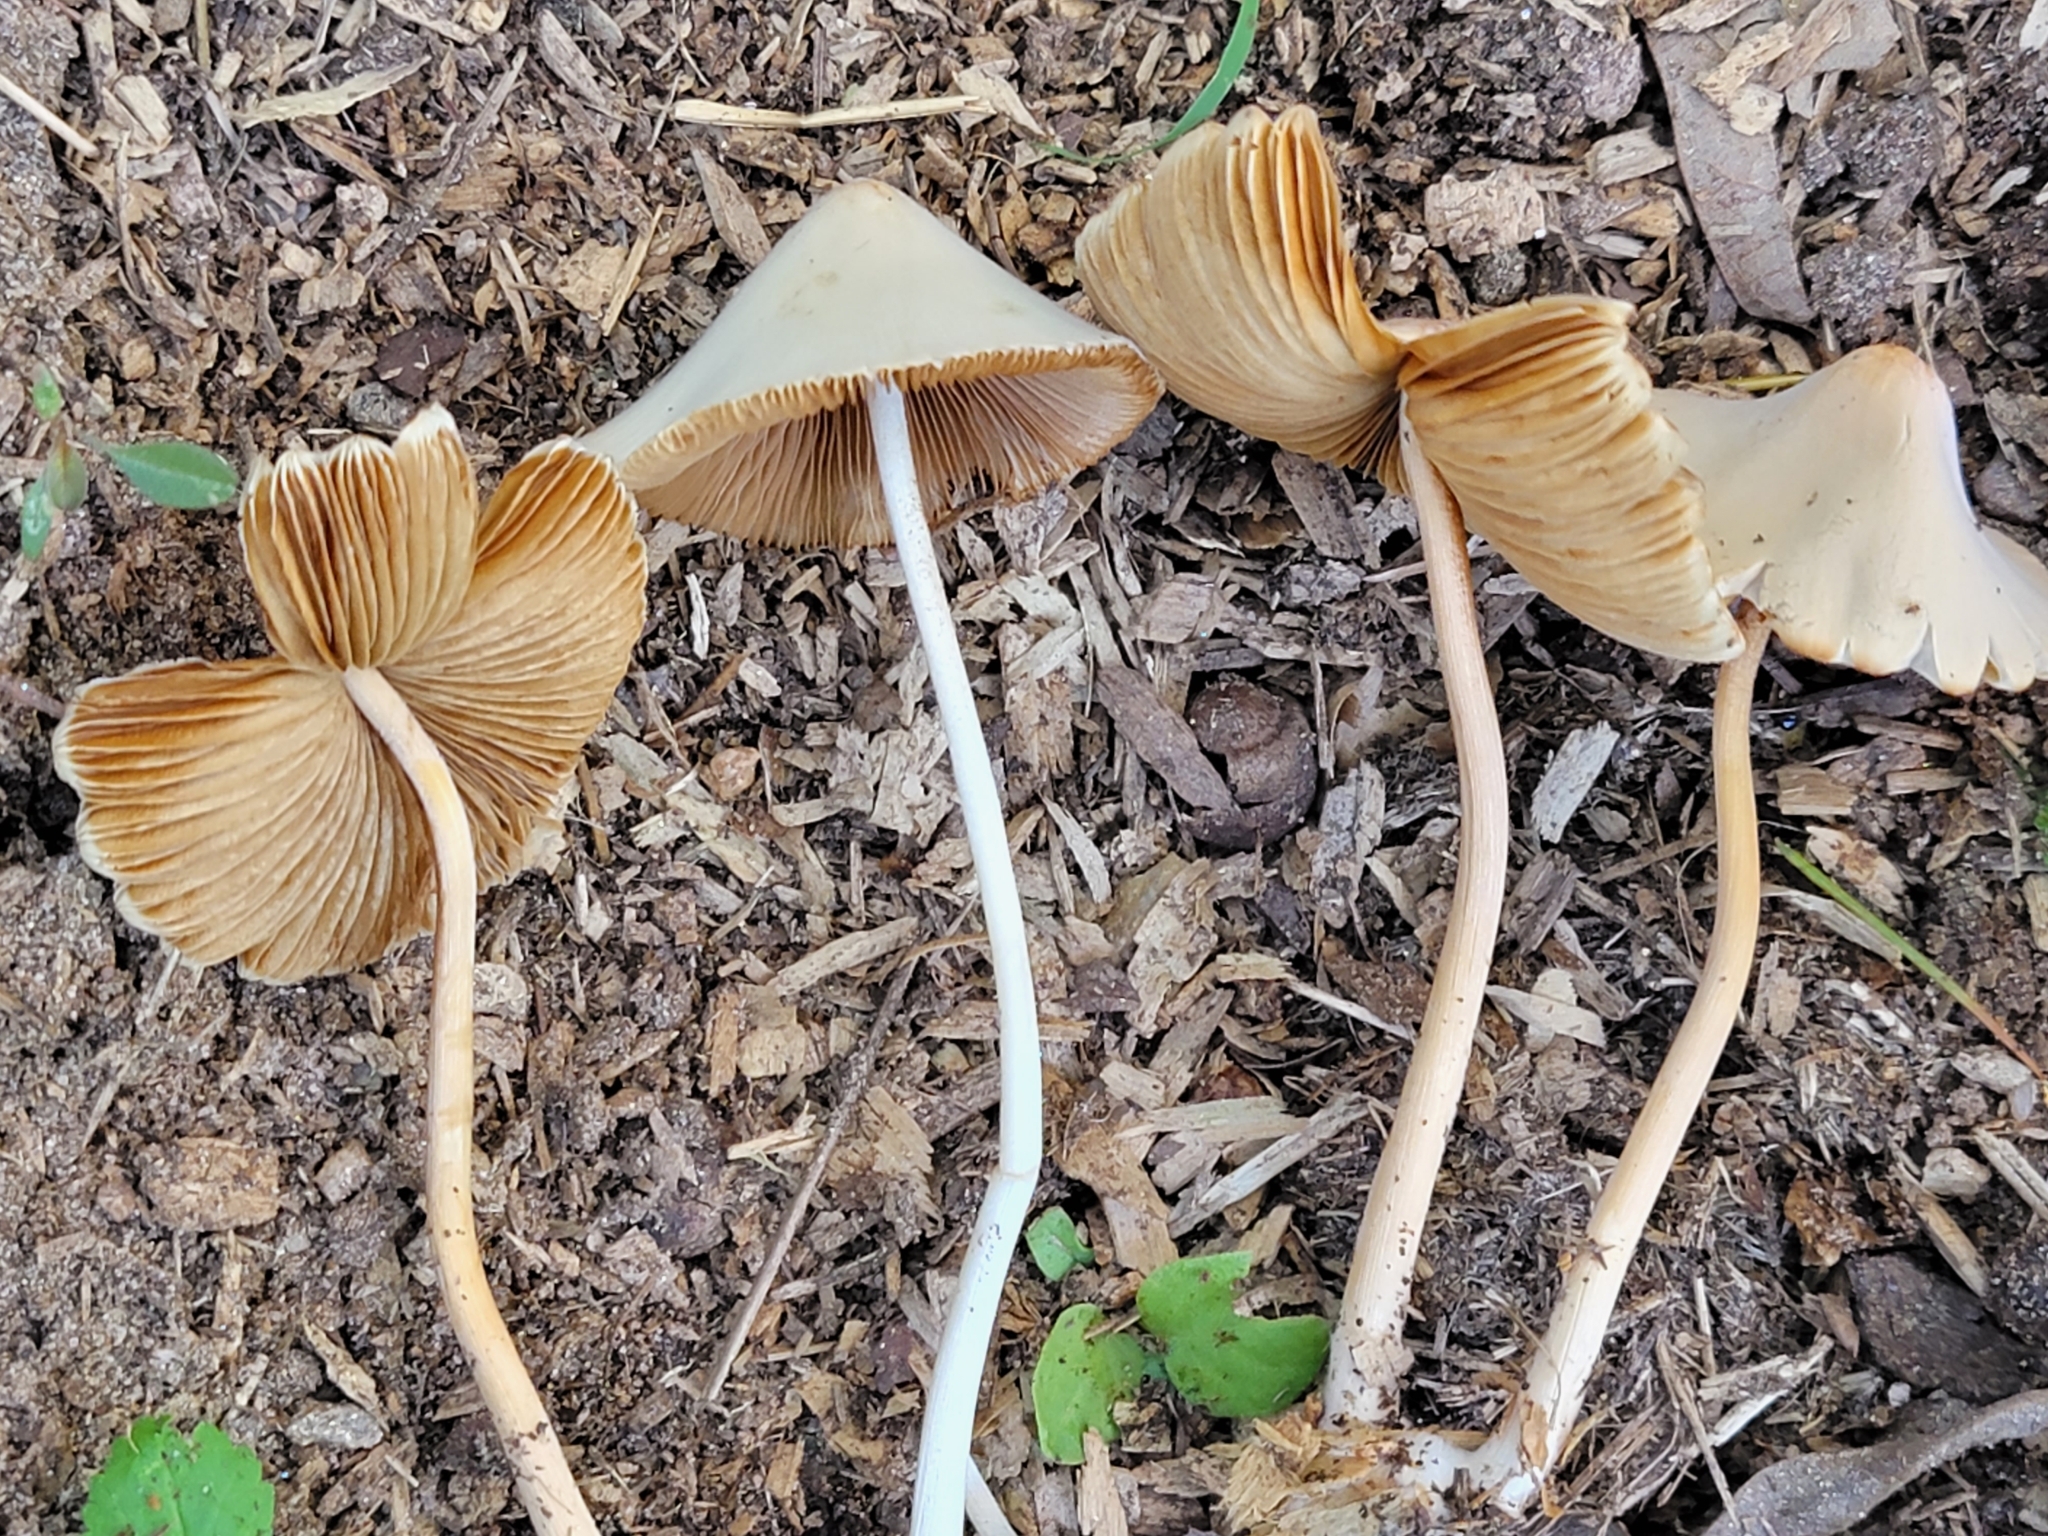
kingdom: Fungi
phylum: Basidiomycota
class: Agaricomycetes
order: Agaricales
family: Bolbitiaceae
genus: Conocybe
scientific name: Conocybe apala
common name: Milky conecap
